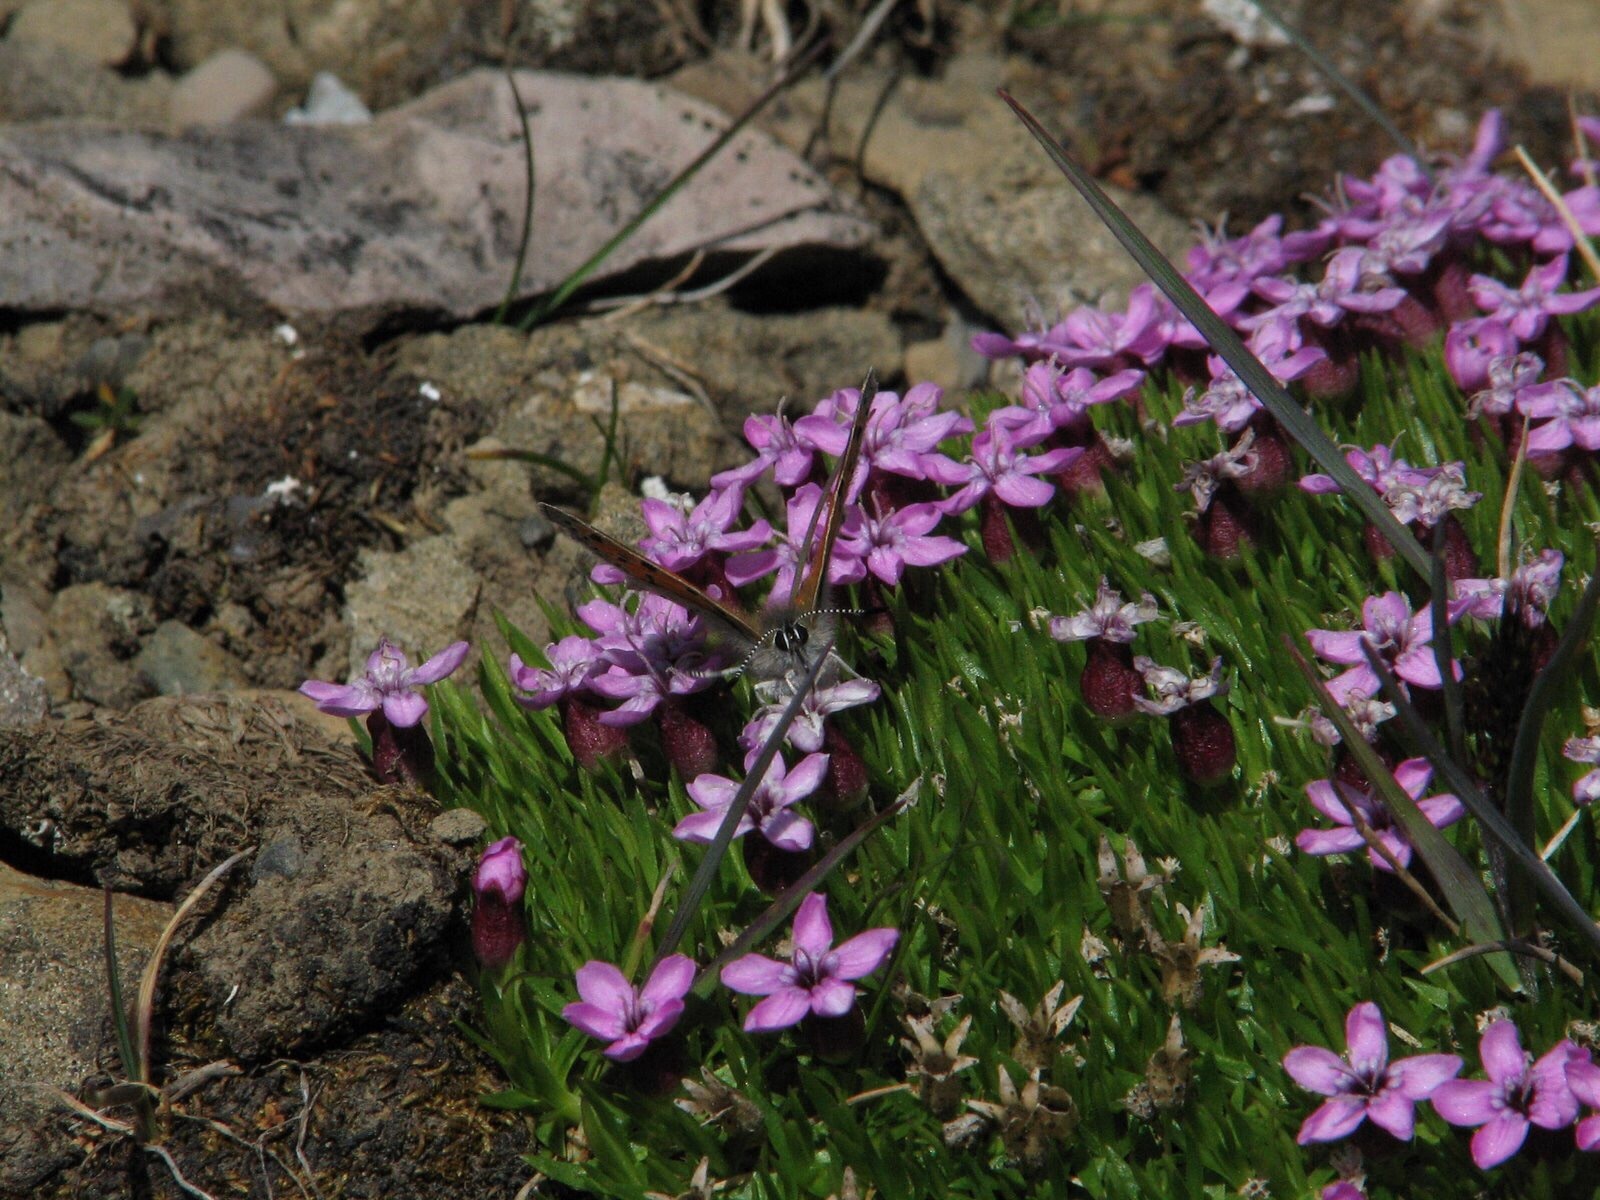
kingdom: Animalia
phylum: Arthropoda
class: Insecta
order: Lepidoptera
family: Lycaenidae
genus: Lycaena
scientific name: Lycaena snowi
